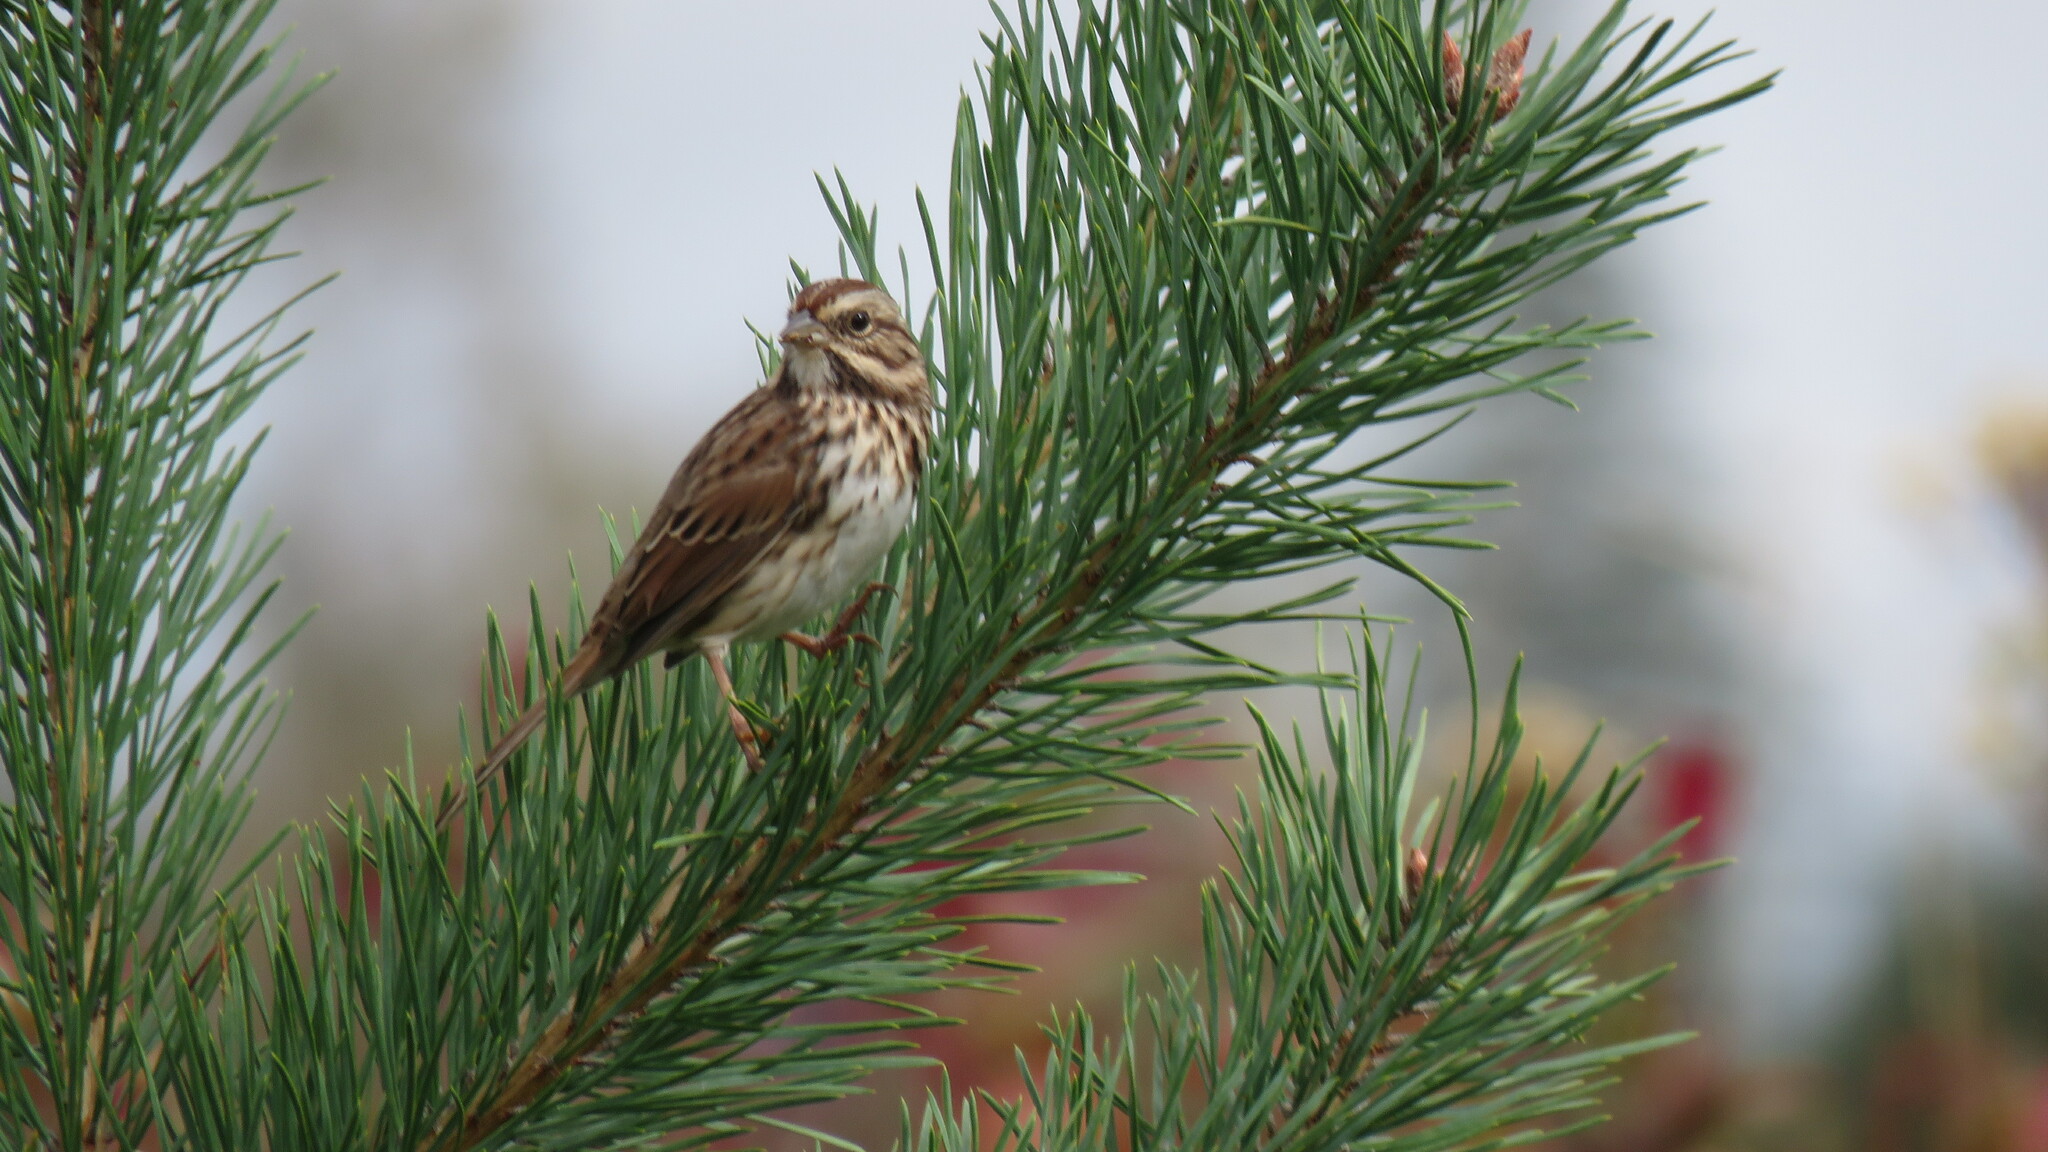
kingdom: Animalia
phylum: Chordata
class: Aves
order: Passeriformes
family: Passerellidae
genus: Melospiza
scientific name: Melospiza melodia
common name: Song sparrow
